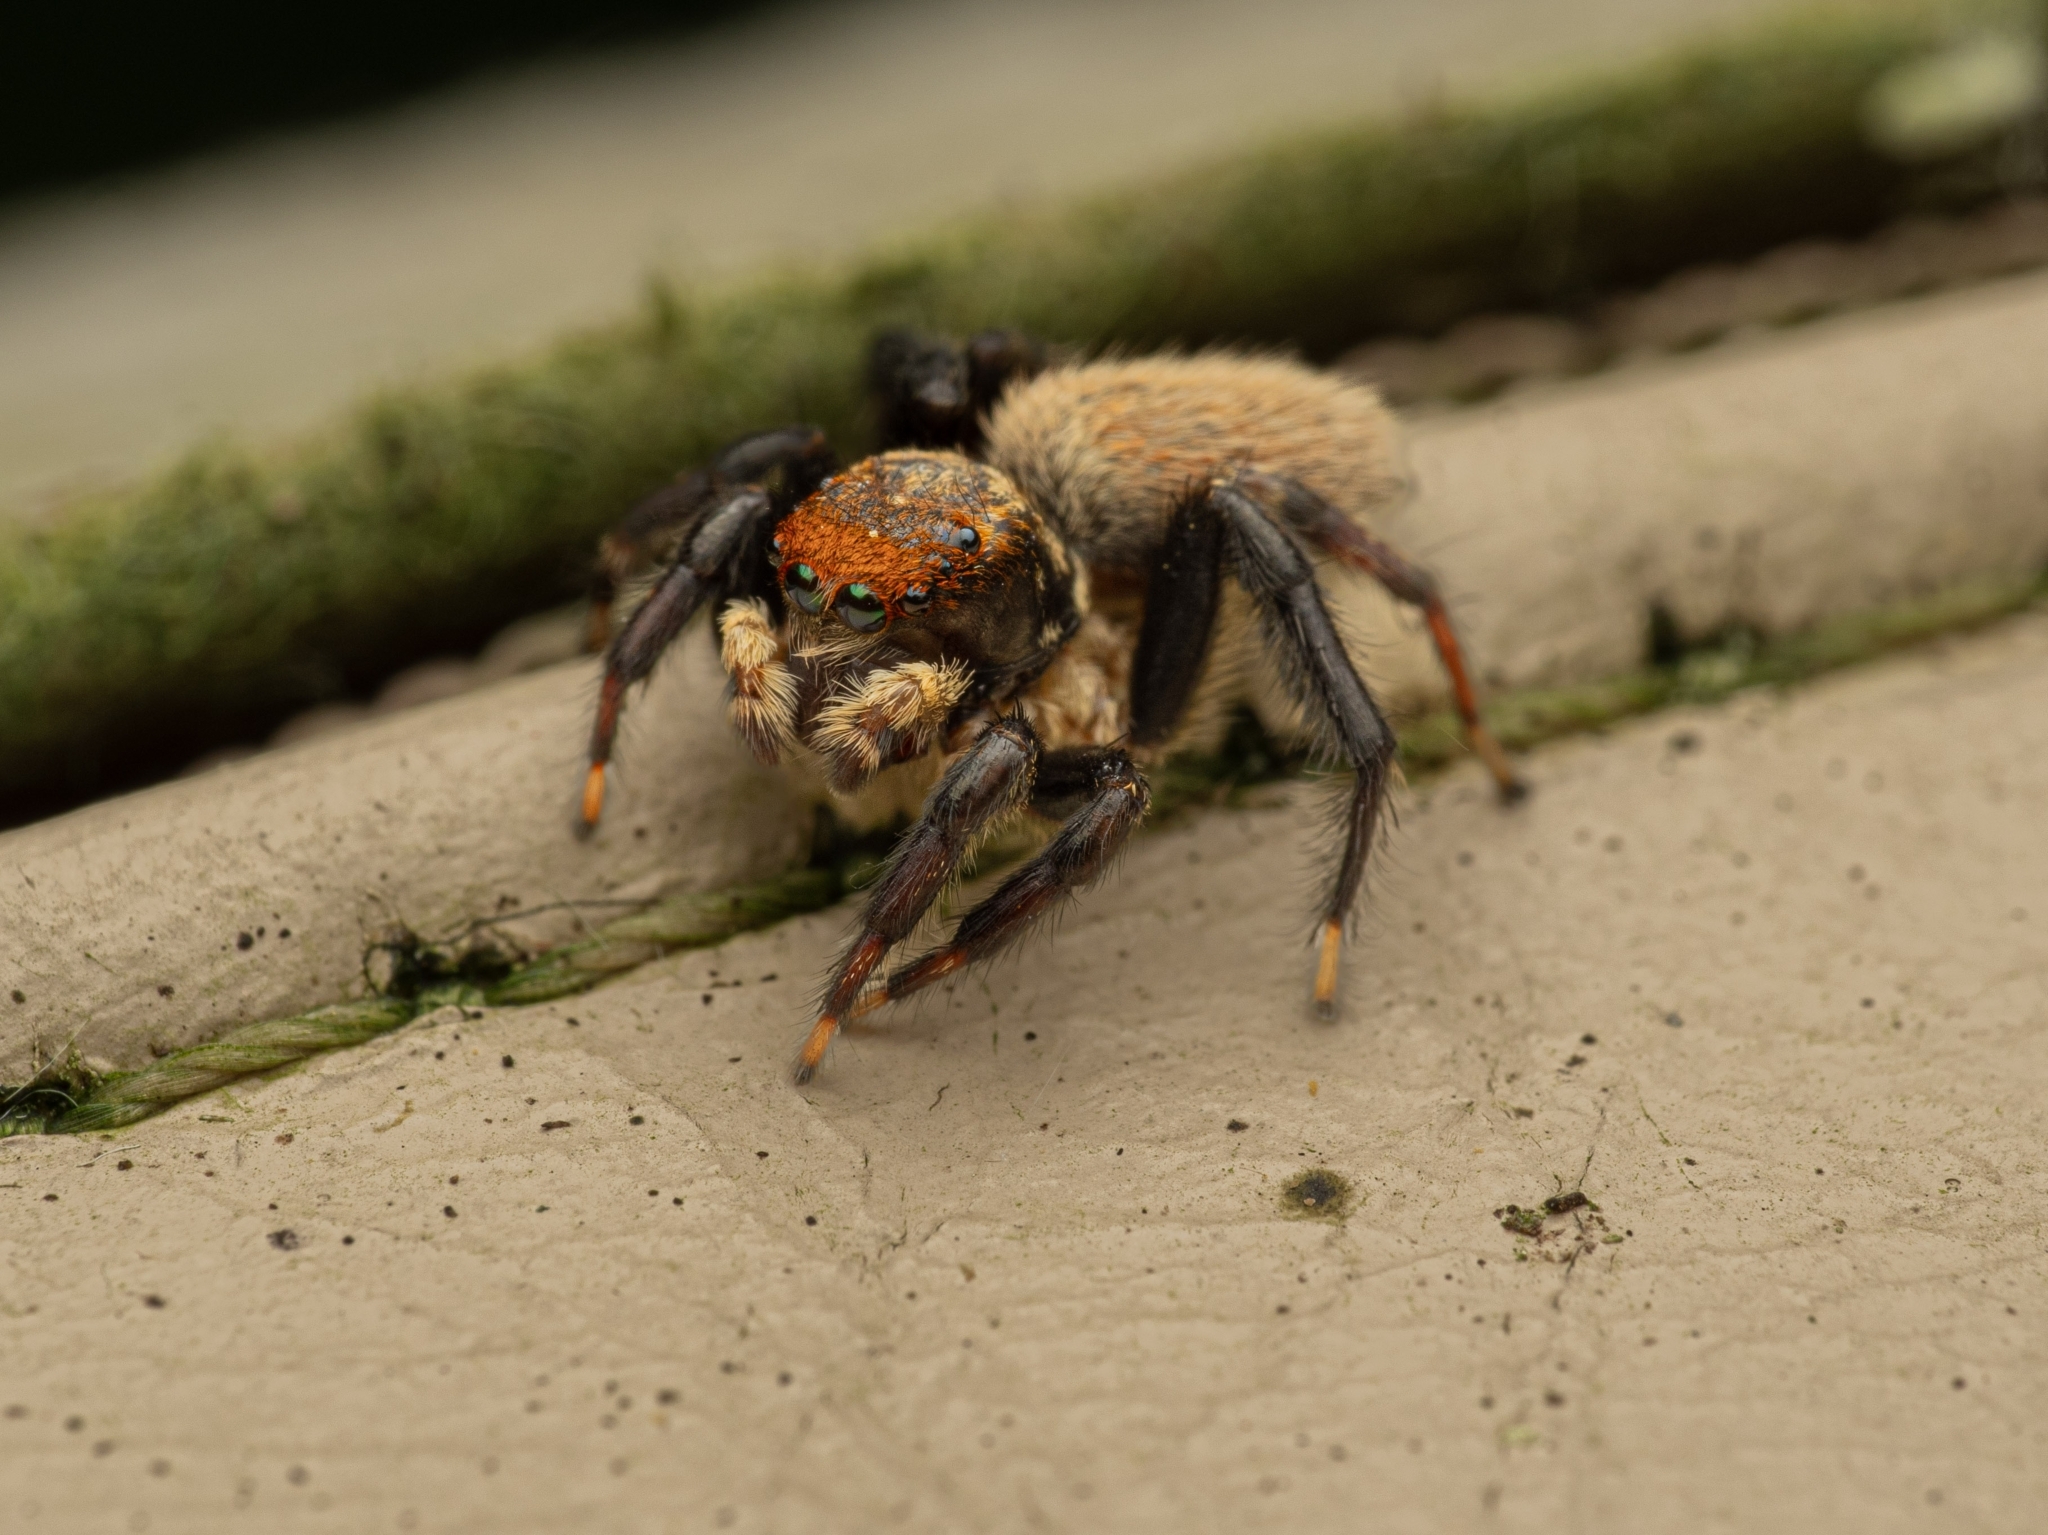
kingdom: Animalia
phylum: Arthropoda
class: Arachnida
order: Araneae
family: Salticidae
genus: Maratus
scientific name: Maratus griseus
